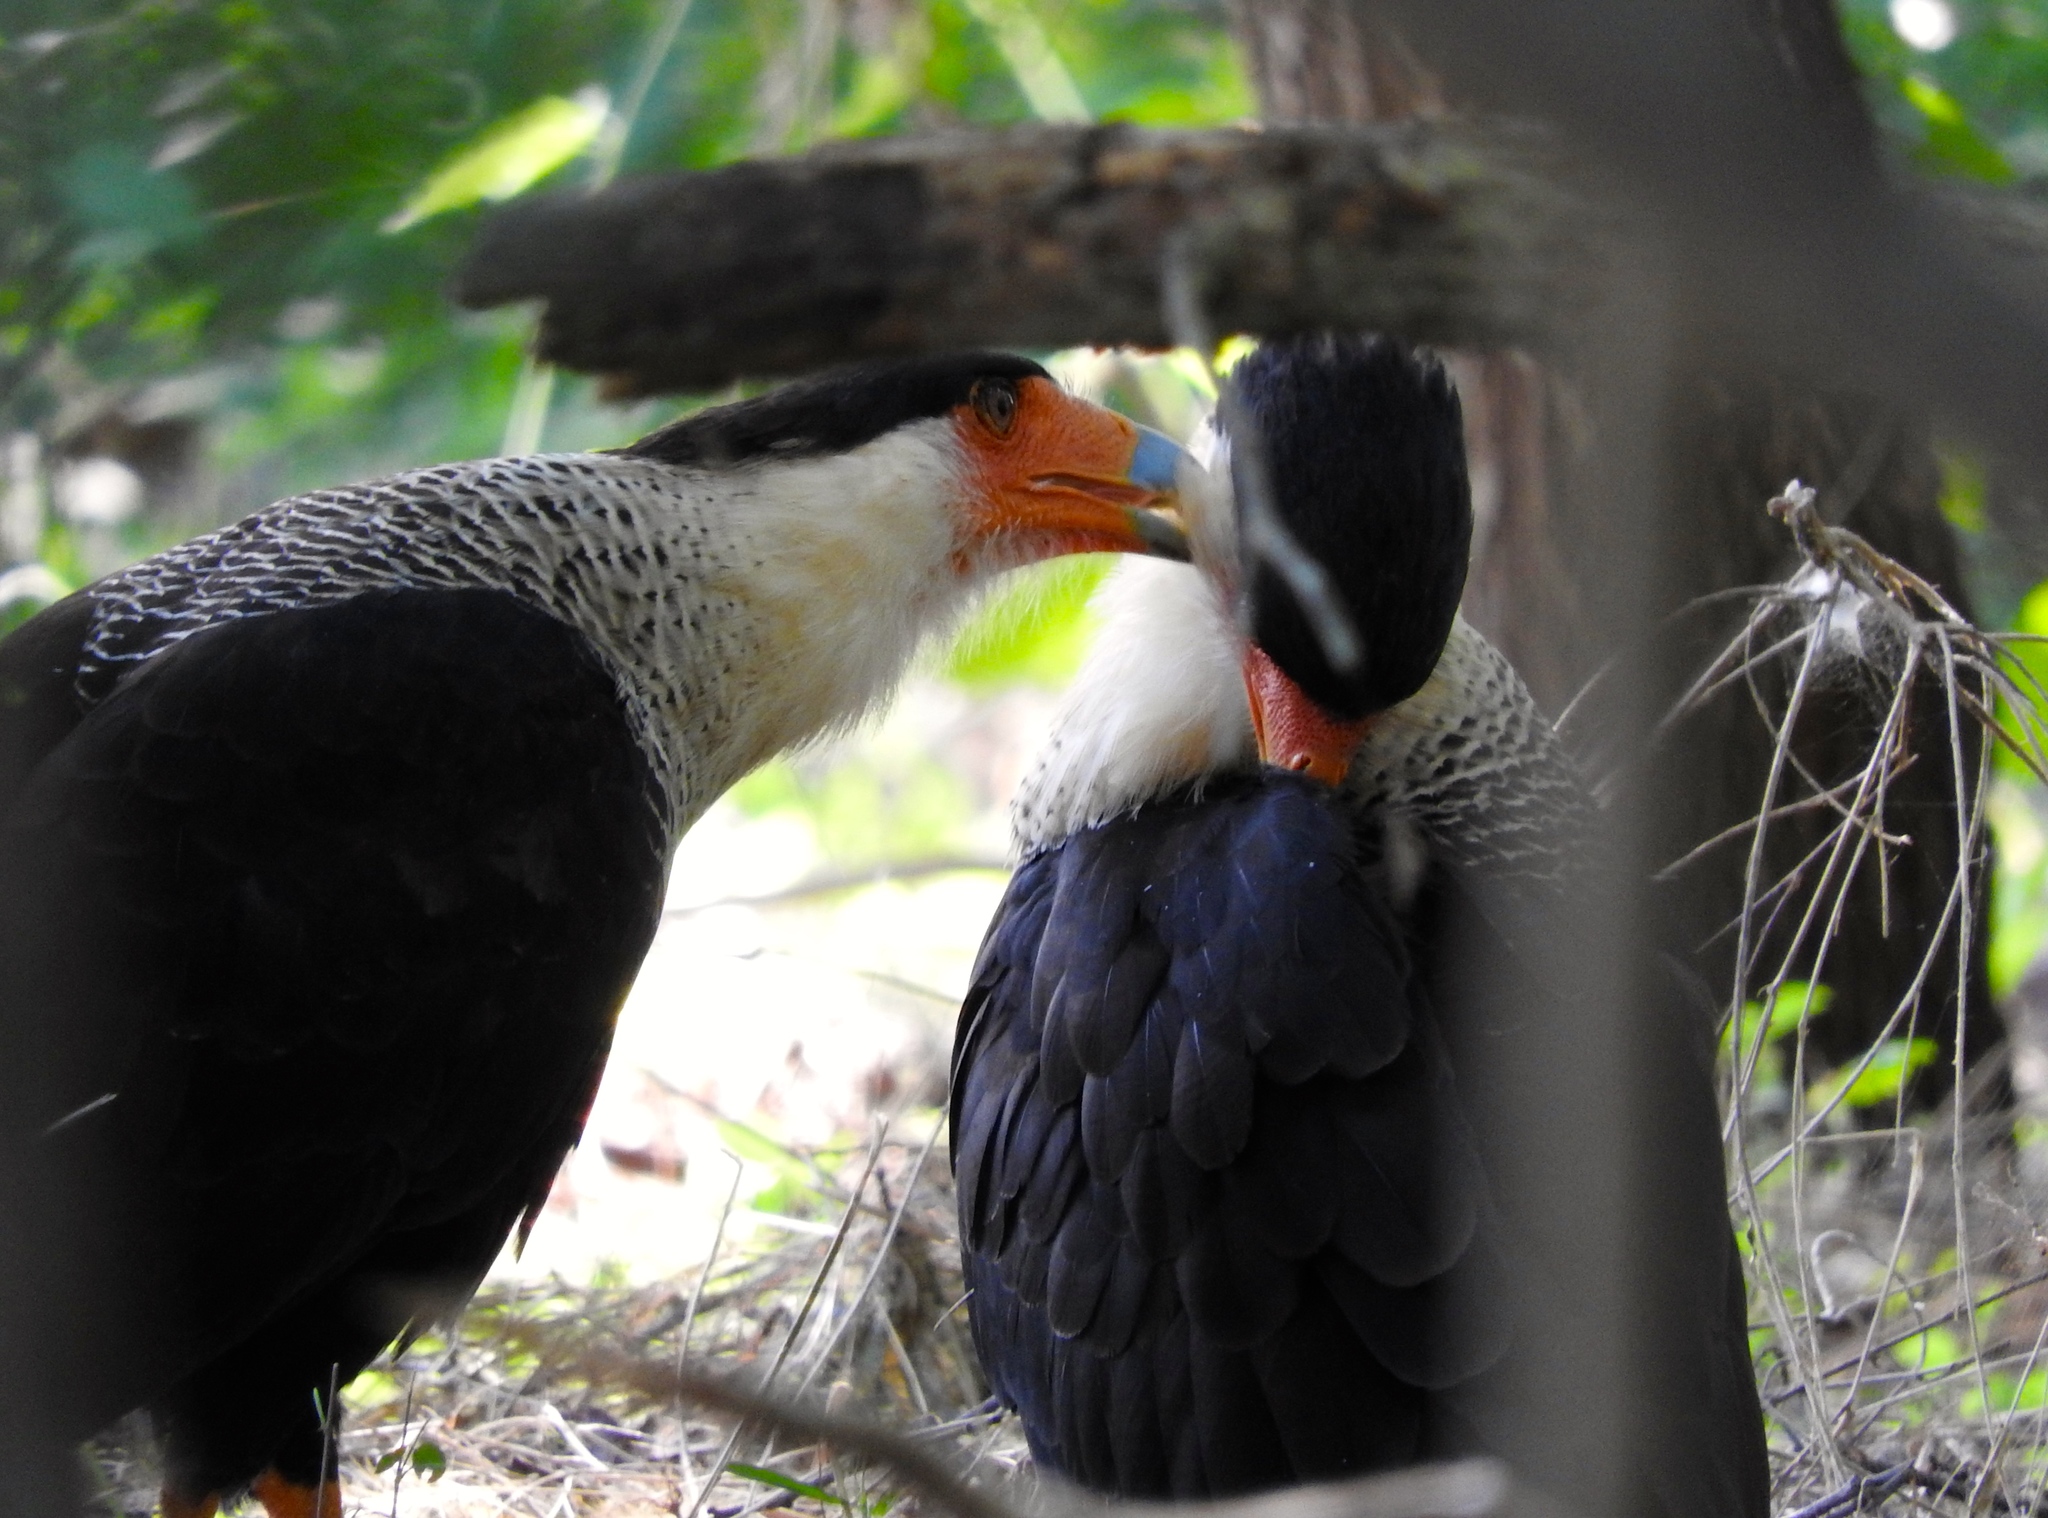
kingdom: Animalia
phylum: Chordata
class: Aves
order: Falconiformes
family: Falconidae
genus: Caracara
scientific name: Caracara plancus
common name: Southern caracara
